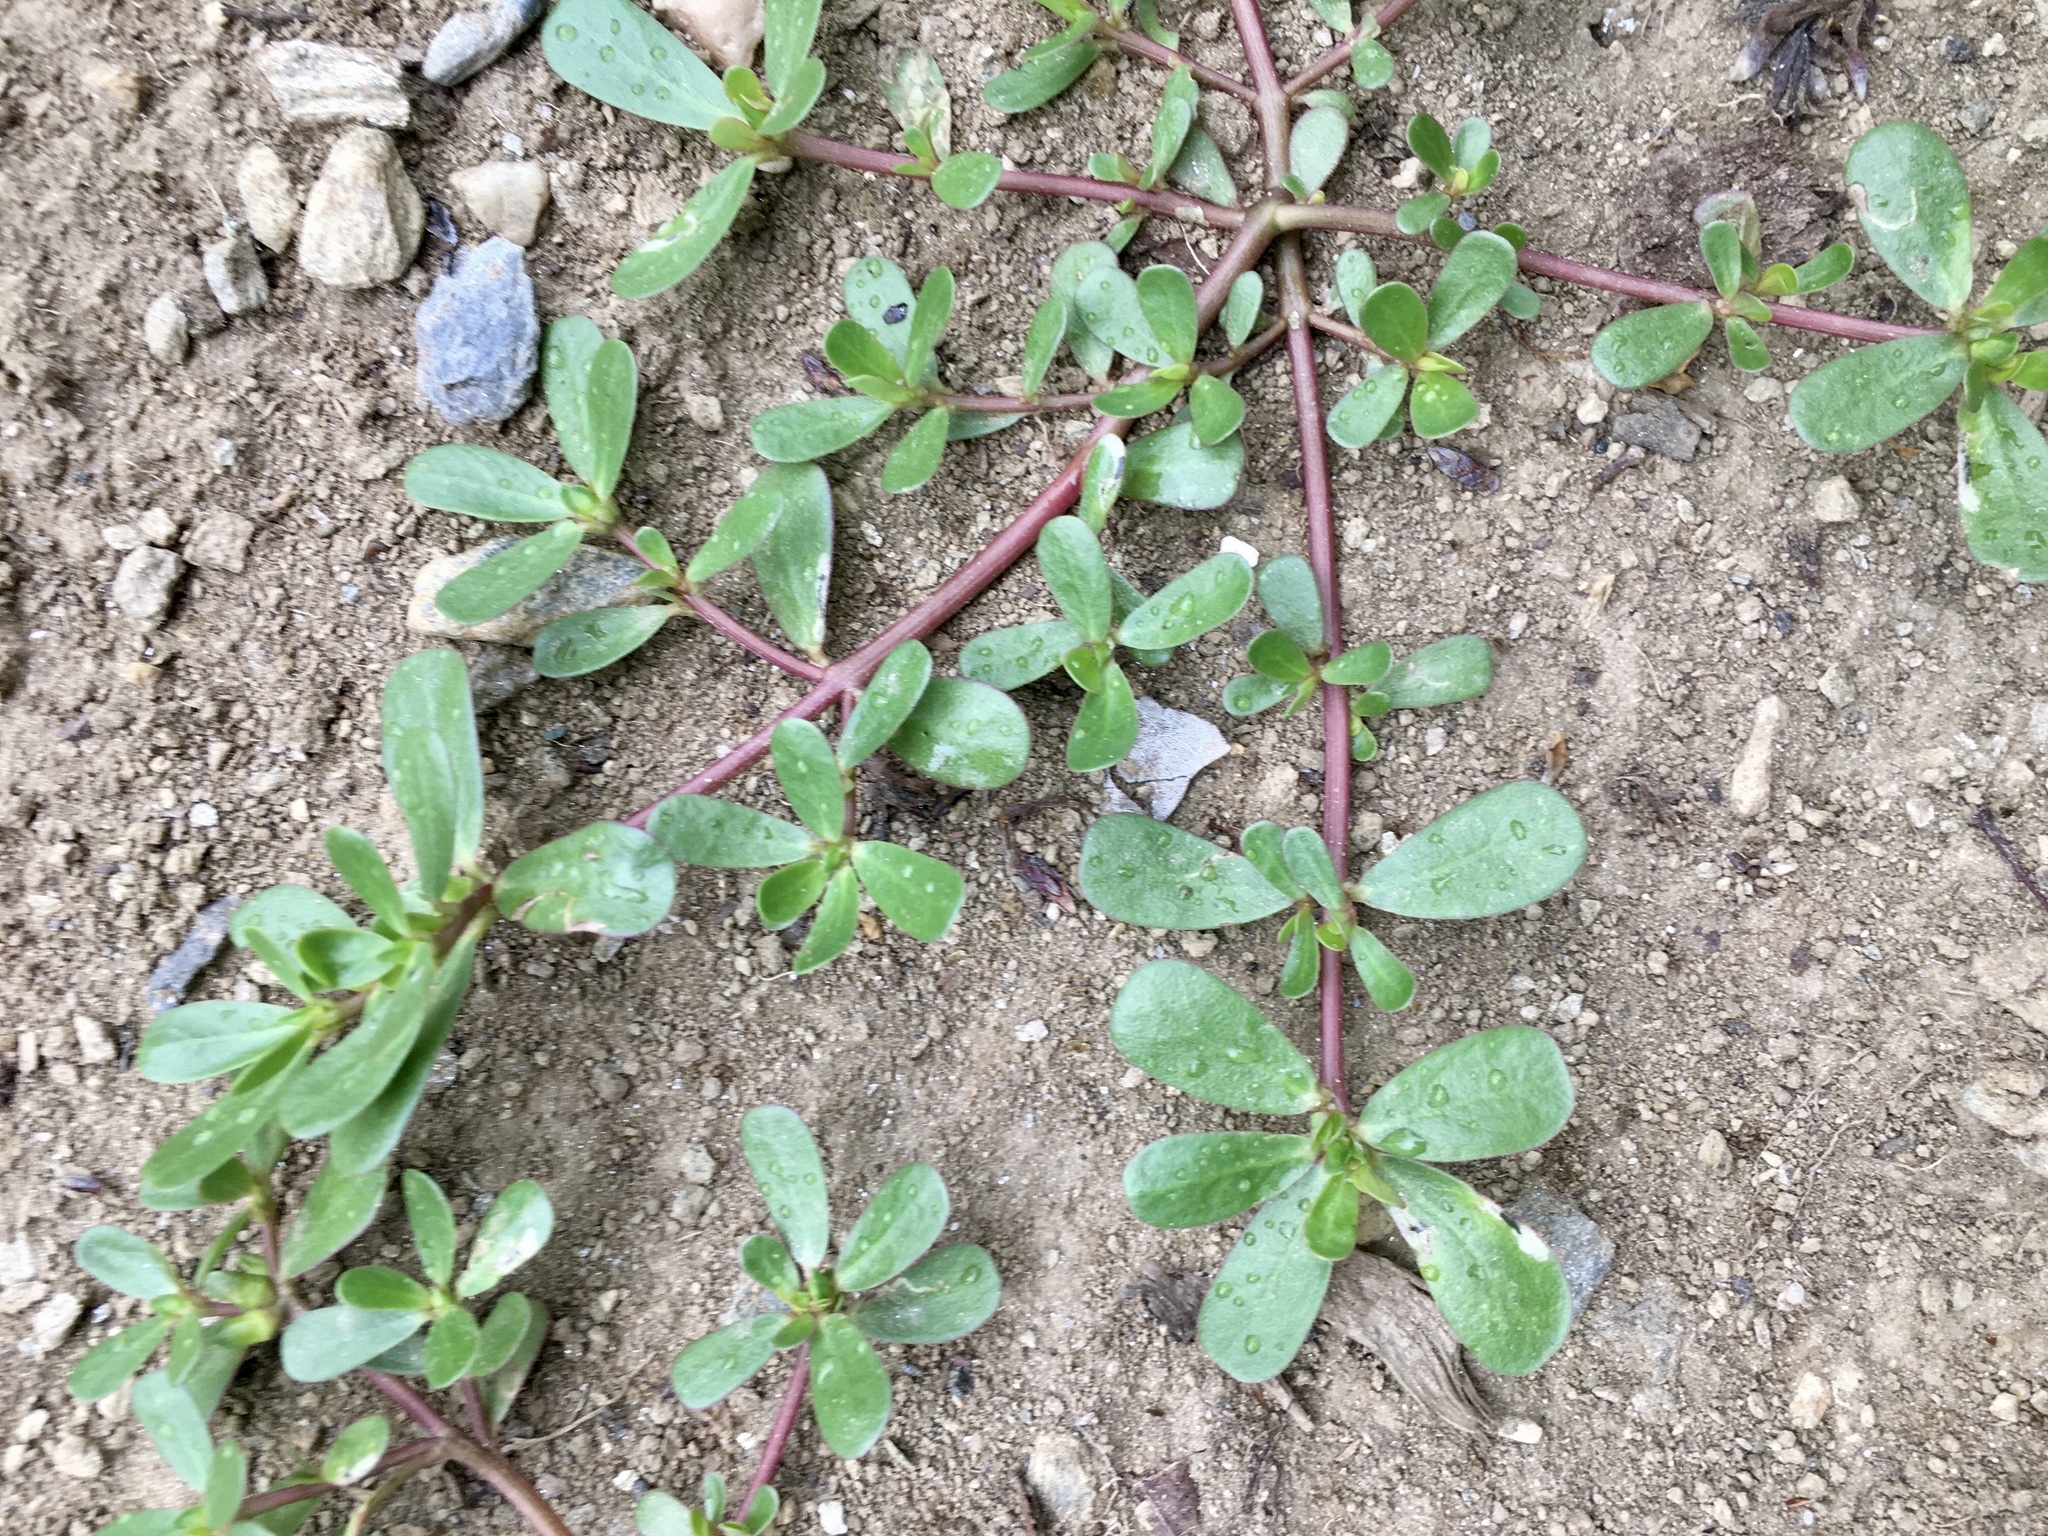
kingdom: Plantae
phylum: Tracheophyta
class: Magnoliopsida
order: Caryophyllales
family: Portulacaceae
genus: Portulaca
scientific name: Portulaca oleracea
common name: Common purslane
